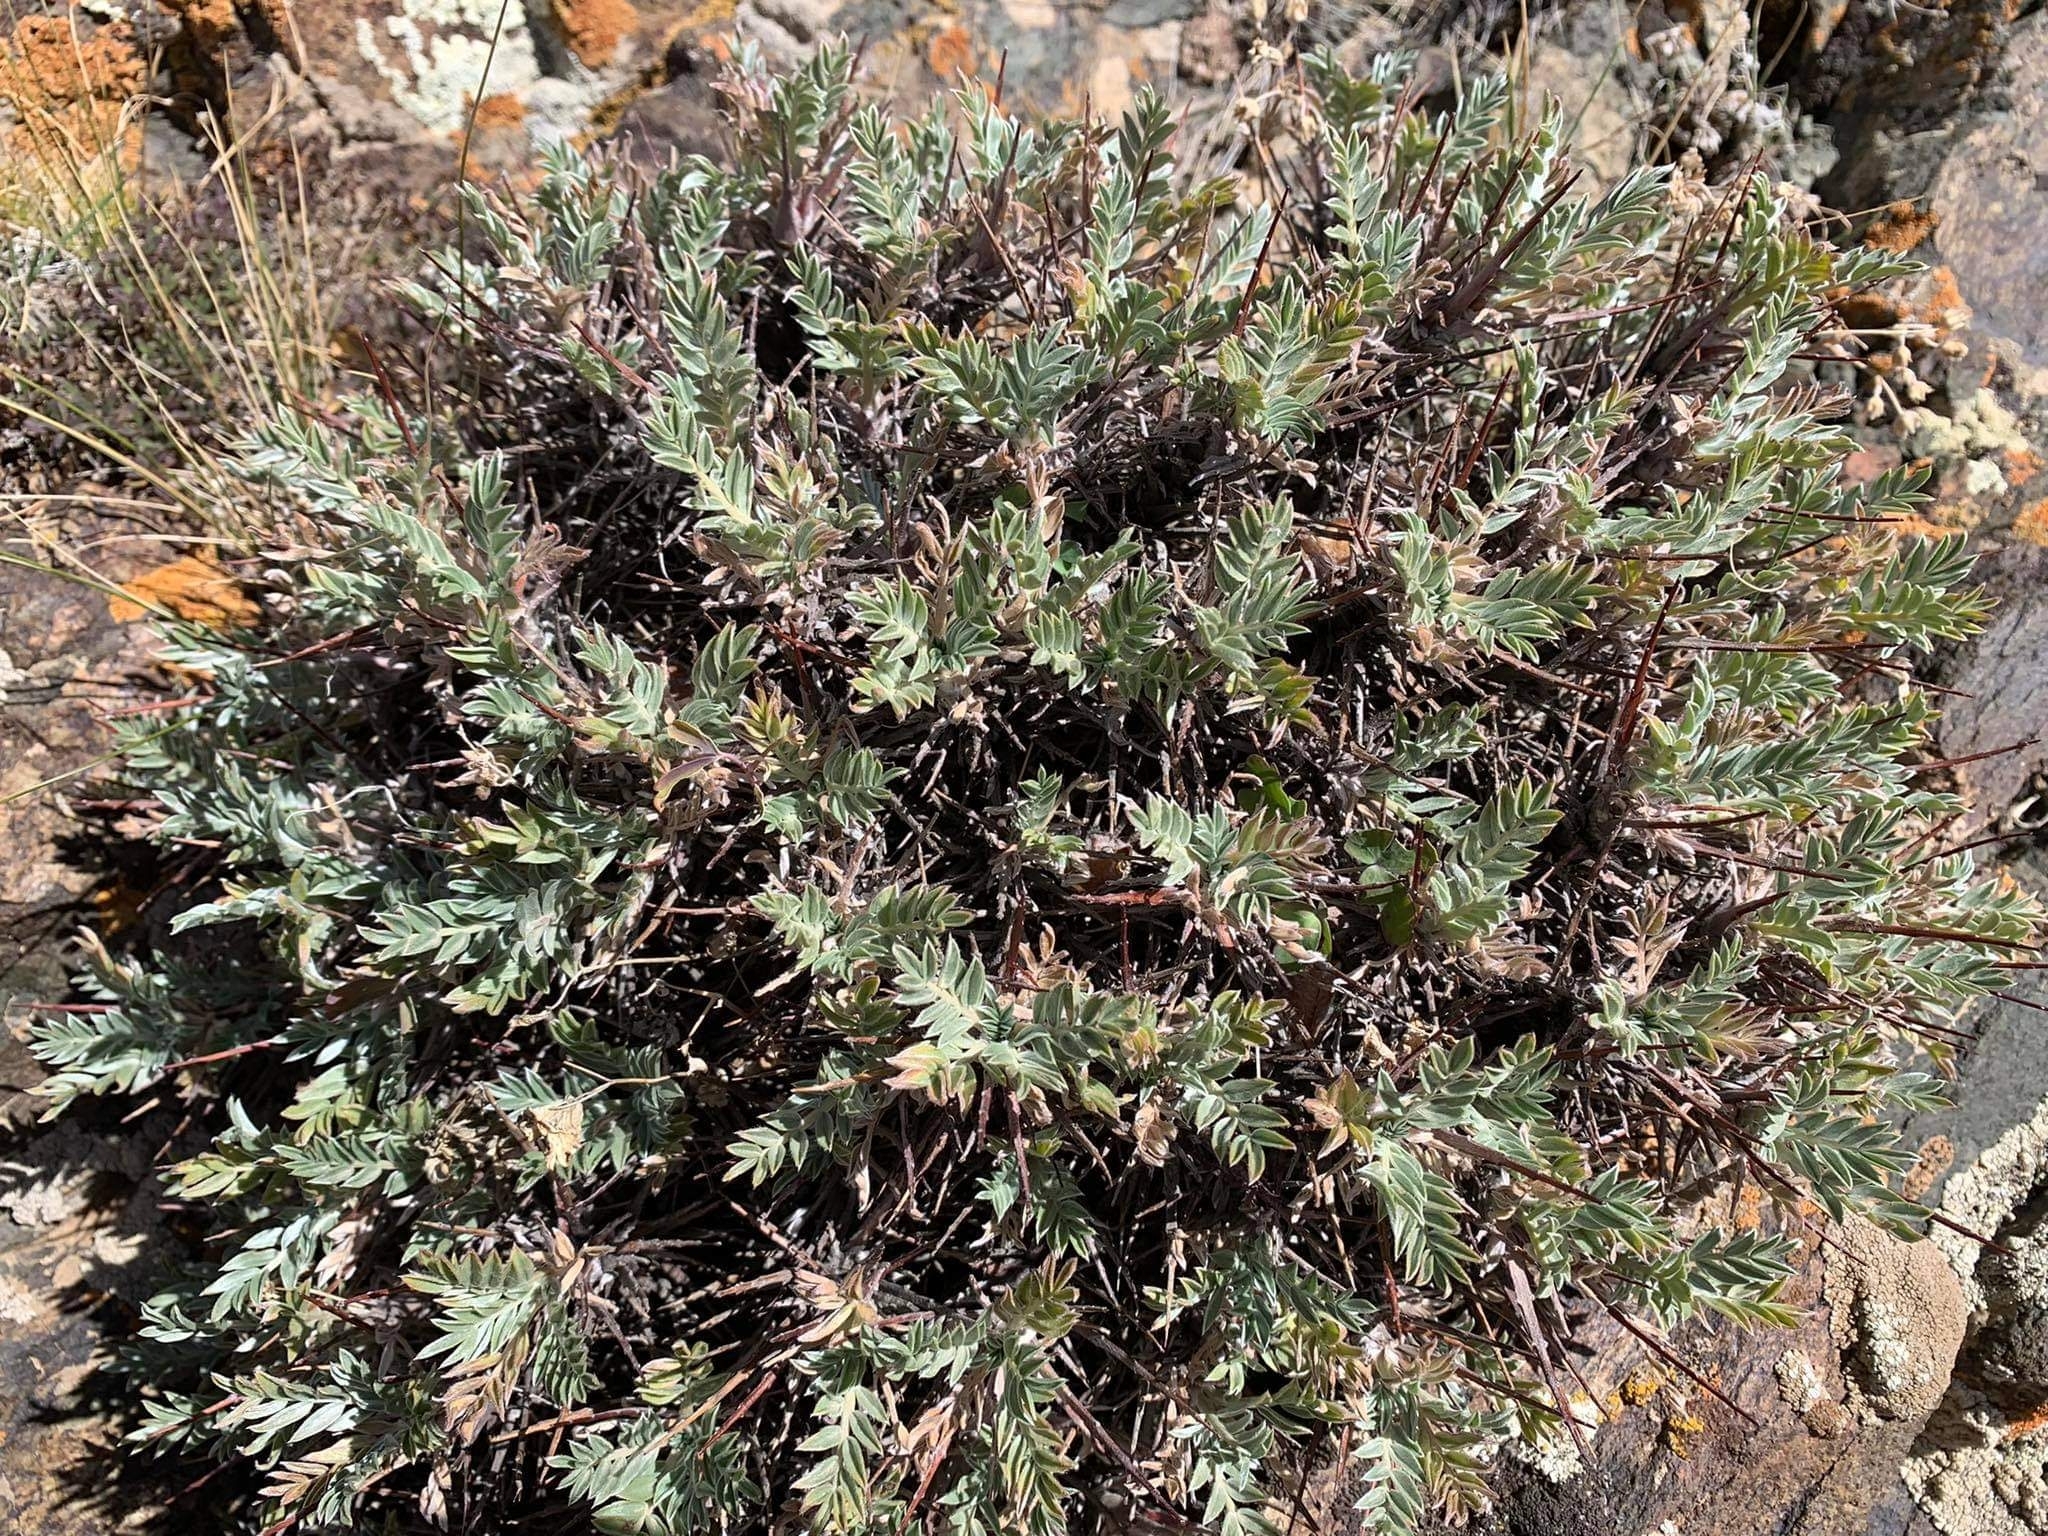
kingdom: Plantae
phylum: Tracheophyta
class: Magnoliopsida
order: Fabales
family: Fabaceae
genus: Oxytropis
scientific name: Oxytropis tragacanthoides
